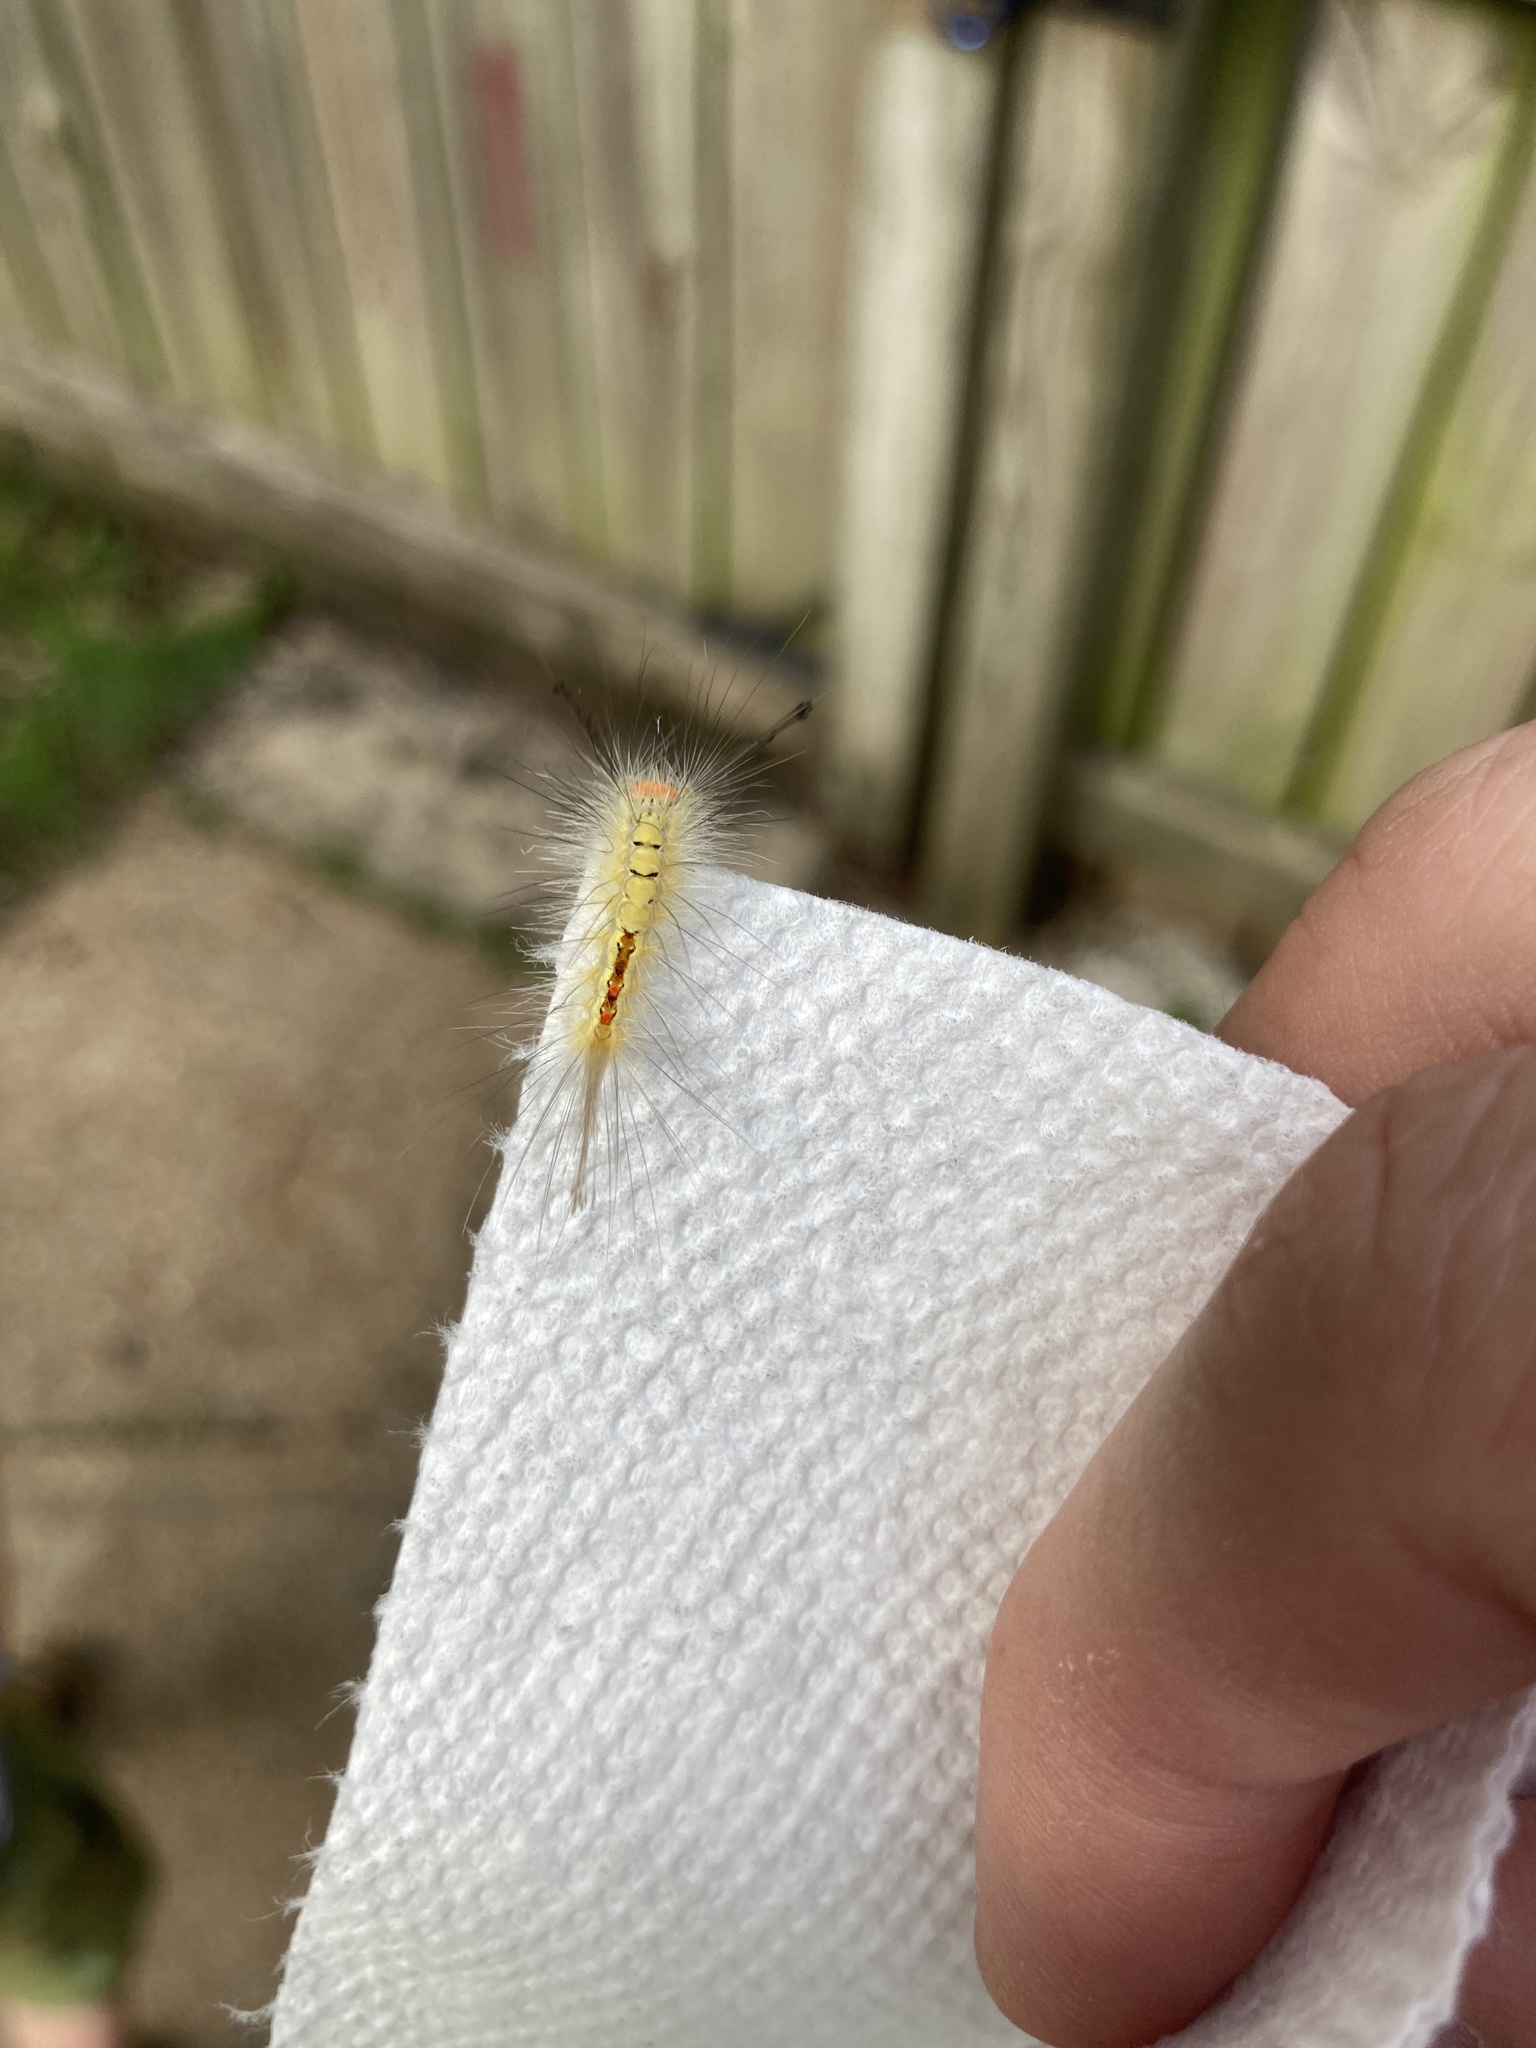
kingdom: Animalia
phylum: Arthropoda
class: Insecta
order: Lepidoptera
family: Erebidae
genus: Orgyia
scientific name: Orgyia leucostigma
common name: White-marked tussock moth
